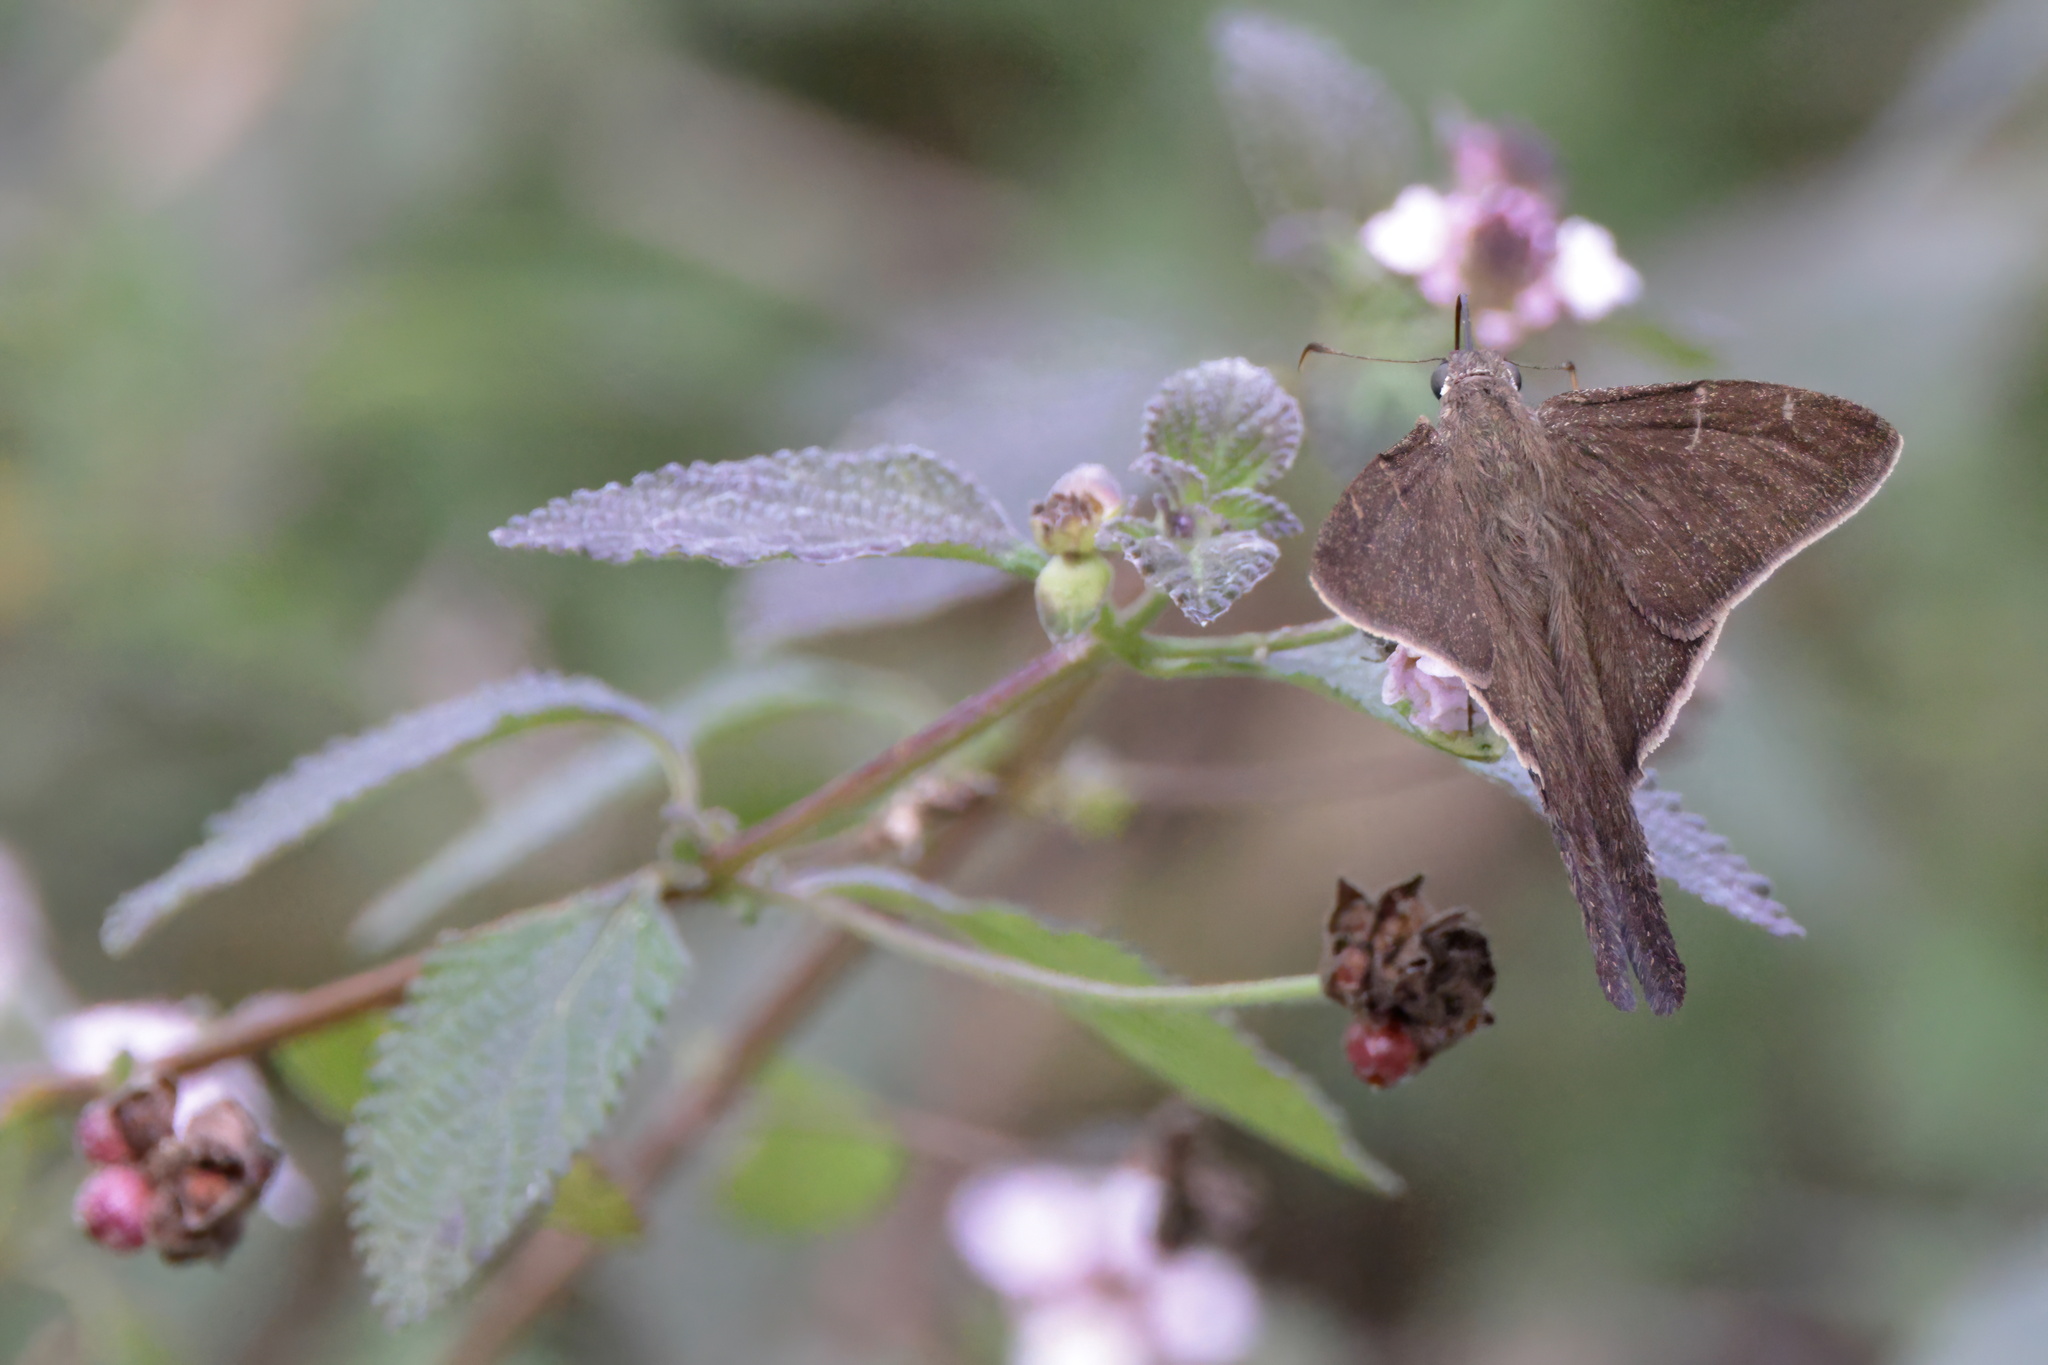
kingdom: Animalia
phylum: Arthropoda
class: Insecta
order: Lepidoptera
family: Hesperiidae
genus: Urbanus
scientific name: Urbanus procne
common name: Brown longtail
